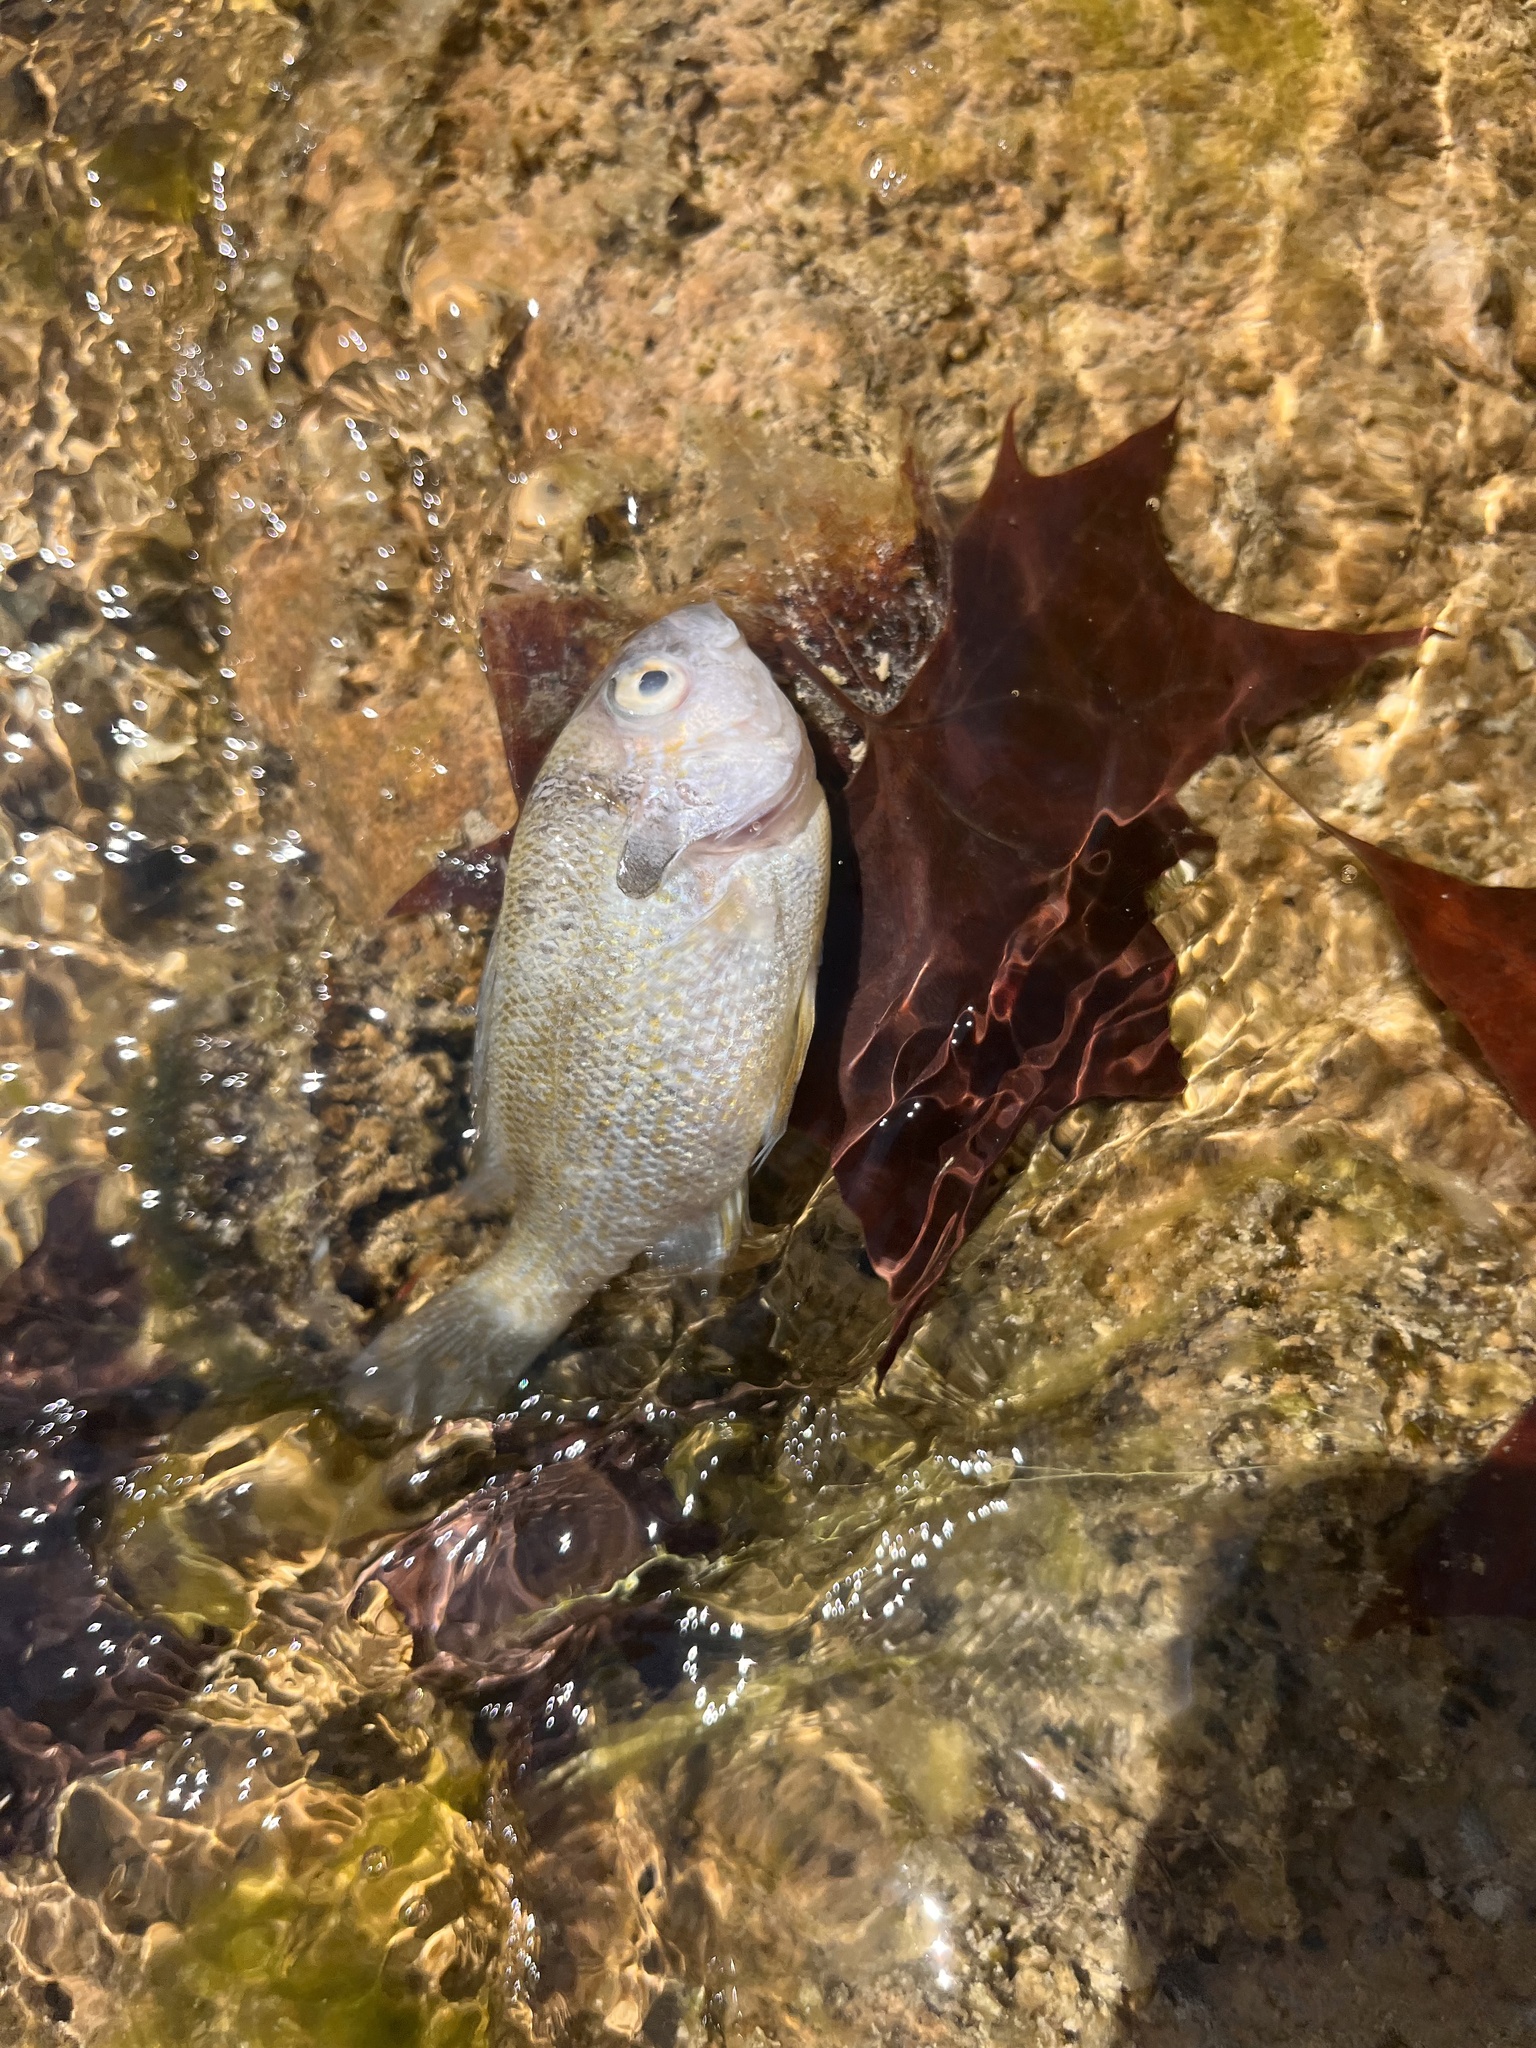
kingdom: Animalia
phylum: Chordata
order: Perciformes
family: Centrarchidae
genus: Lepomis
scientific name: Lepomis aquilensis
